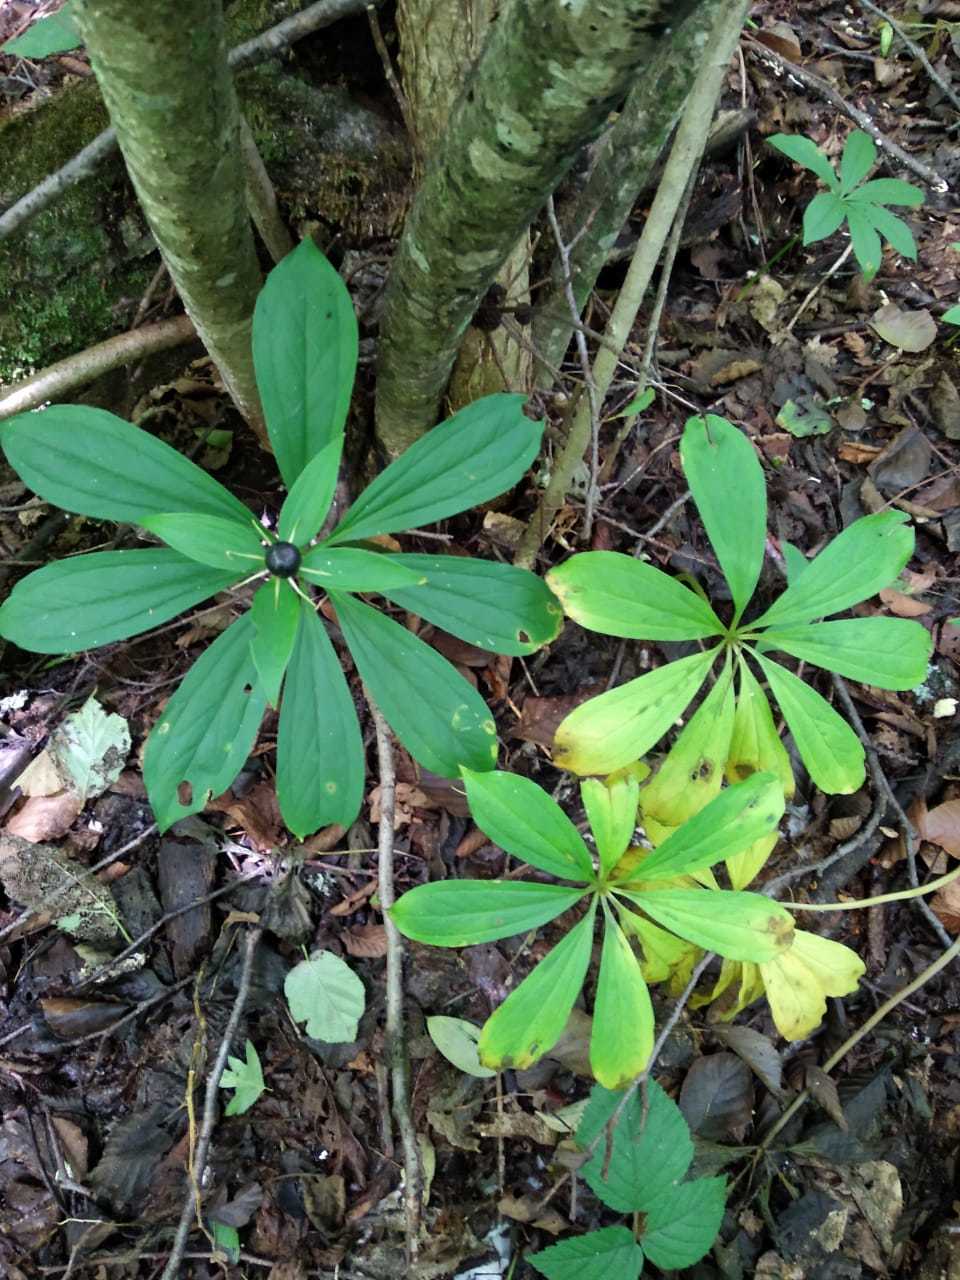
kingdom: Plantae
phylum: Tracheophyta
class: Liliopsida
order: Liliales
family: Melanthiaceae
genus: Paris
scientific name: Paris incompleta
